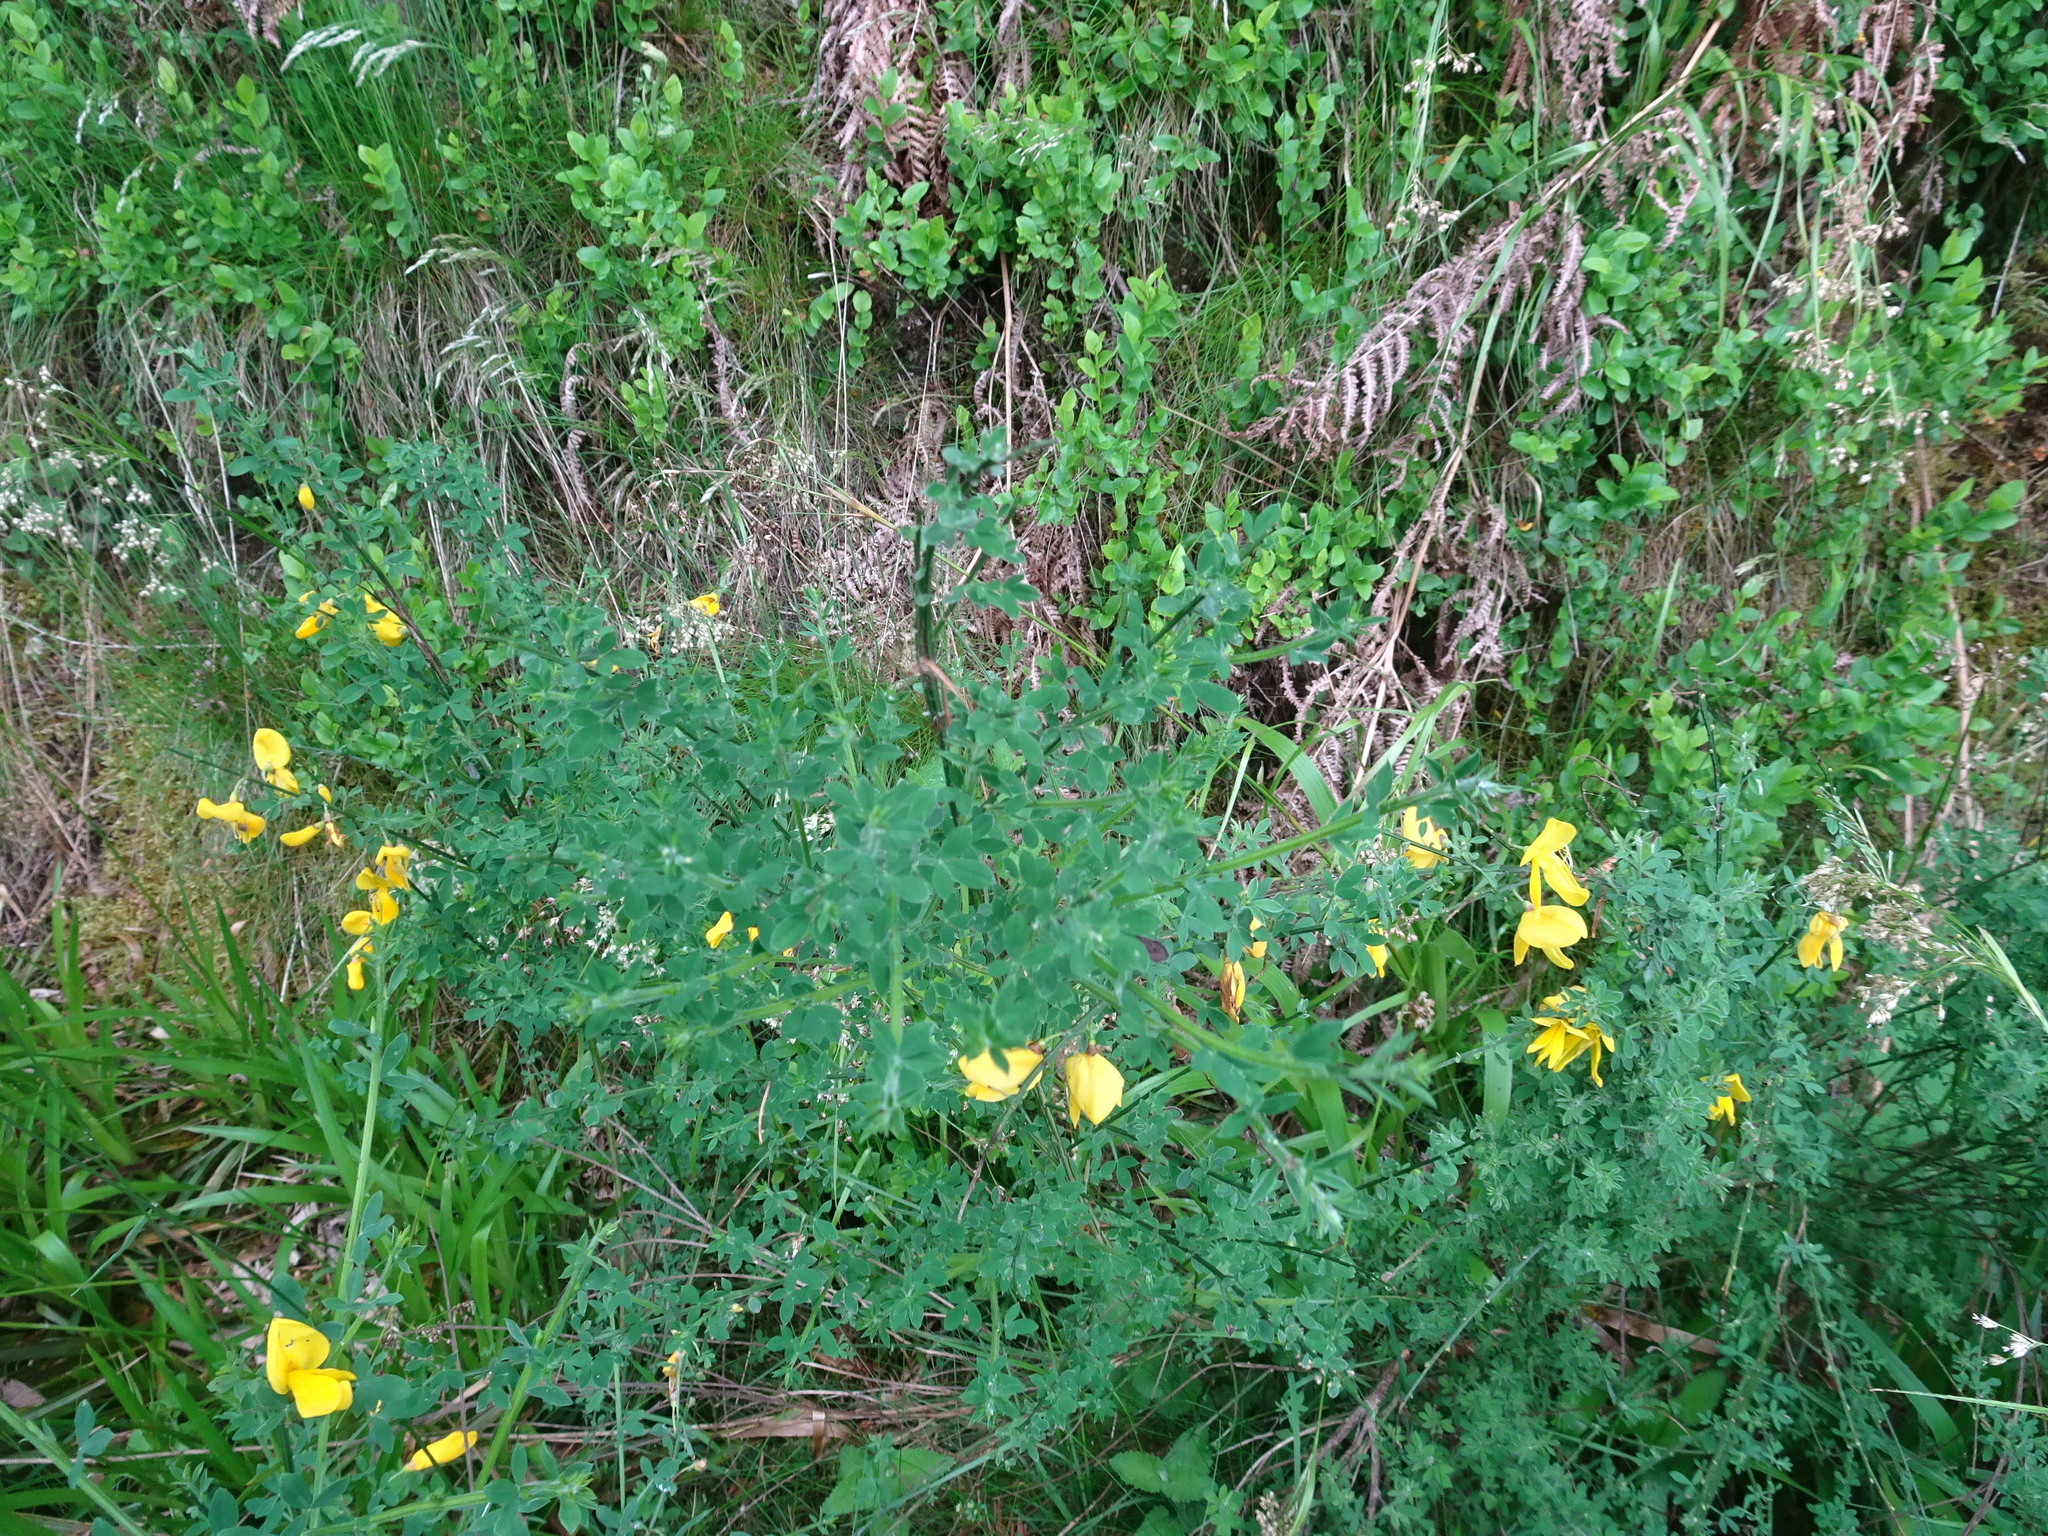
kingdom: Plantae
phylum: Tracheophyta
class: Magnoliopsida
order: Fabales
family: Fabaceae
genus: Cytisus
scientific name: Cytisus scoparius
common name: Scotch broom
